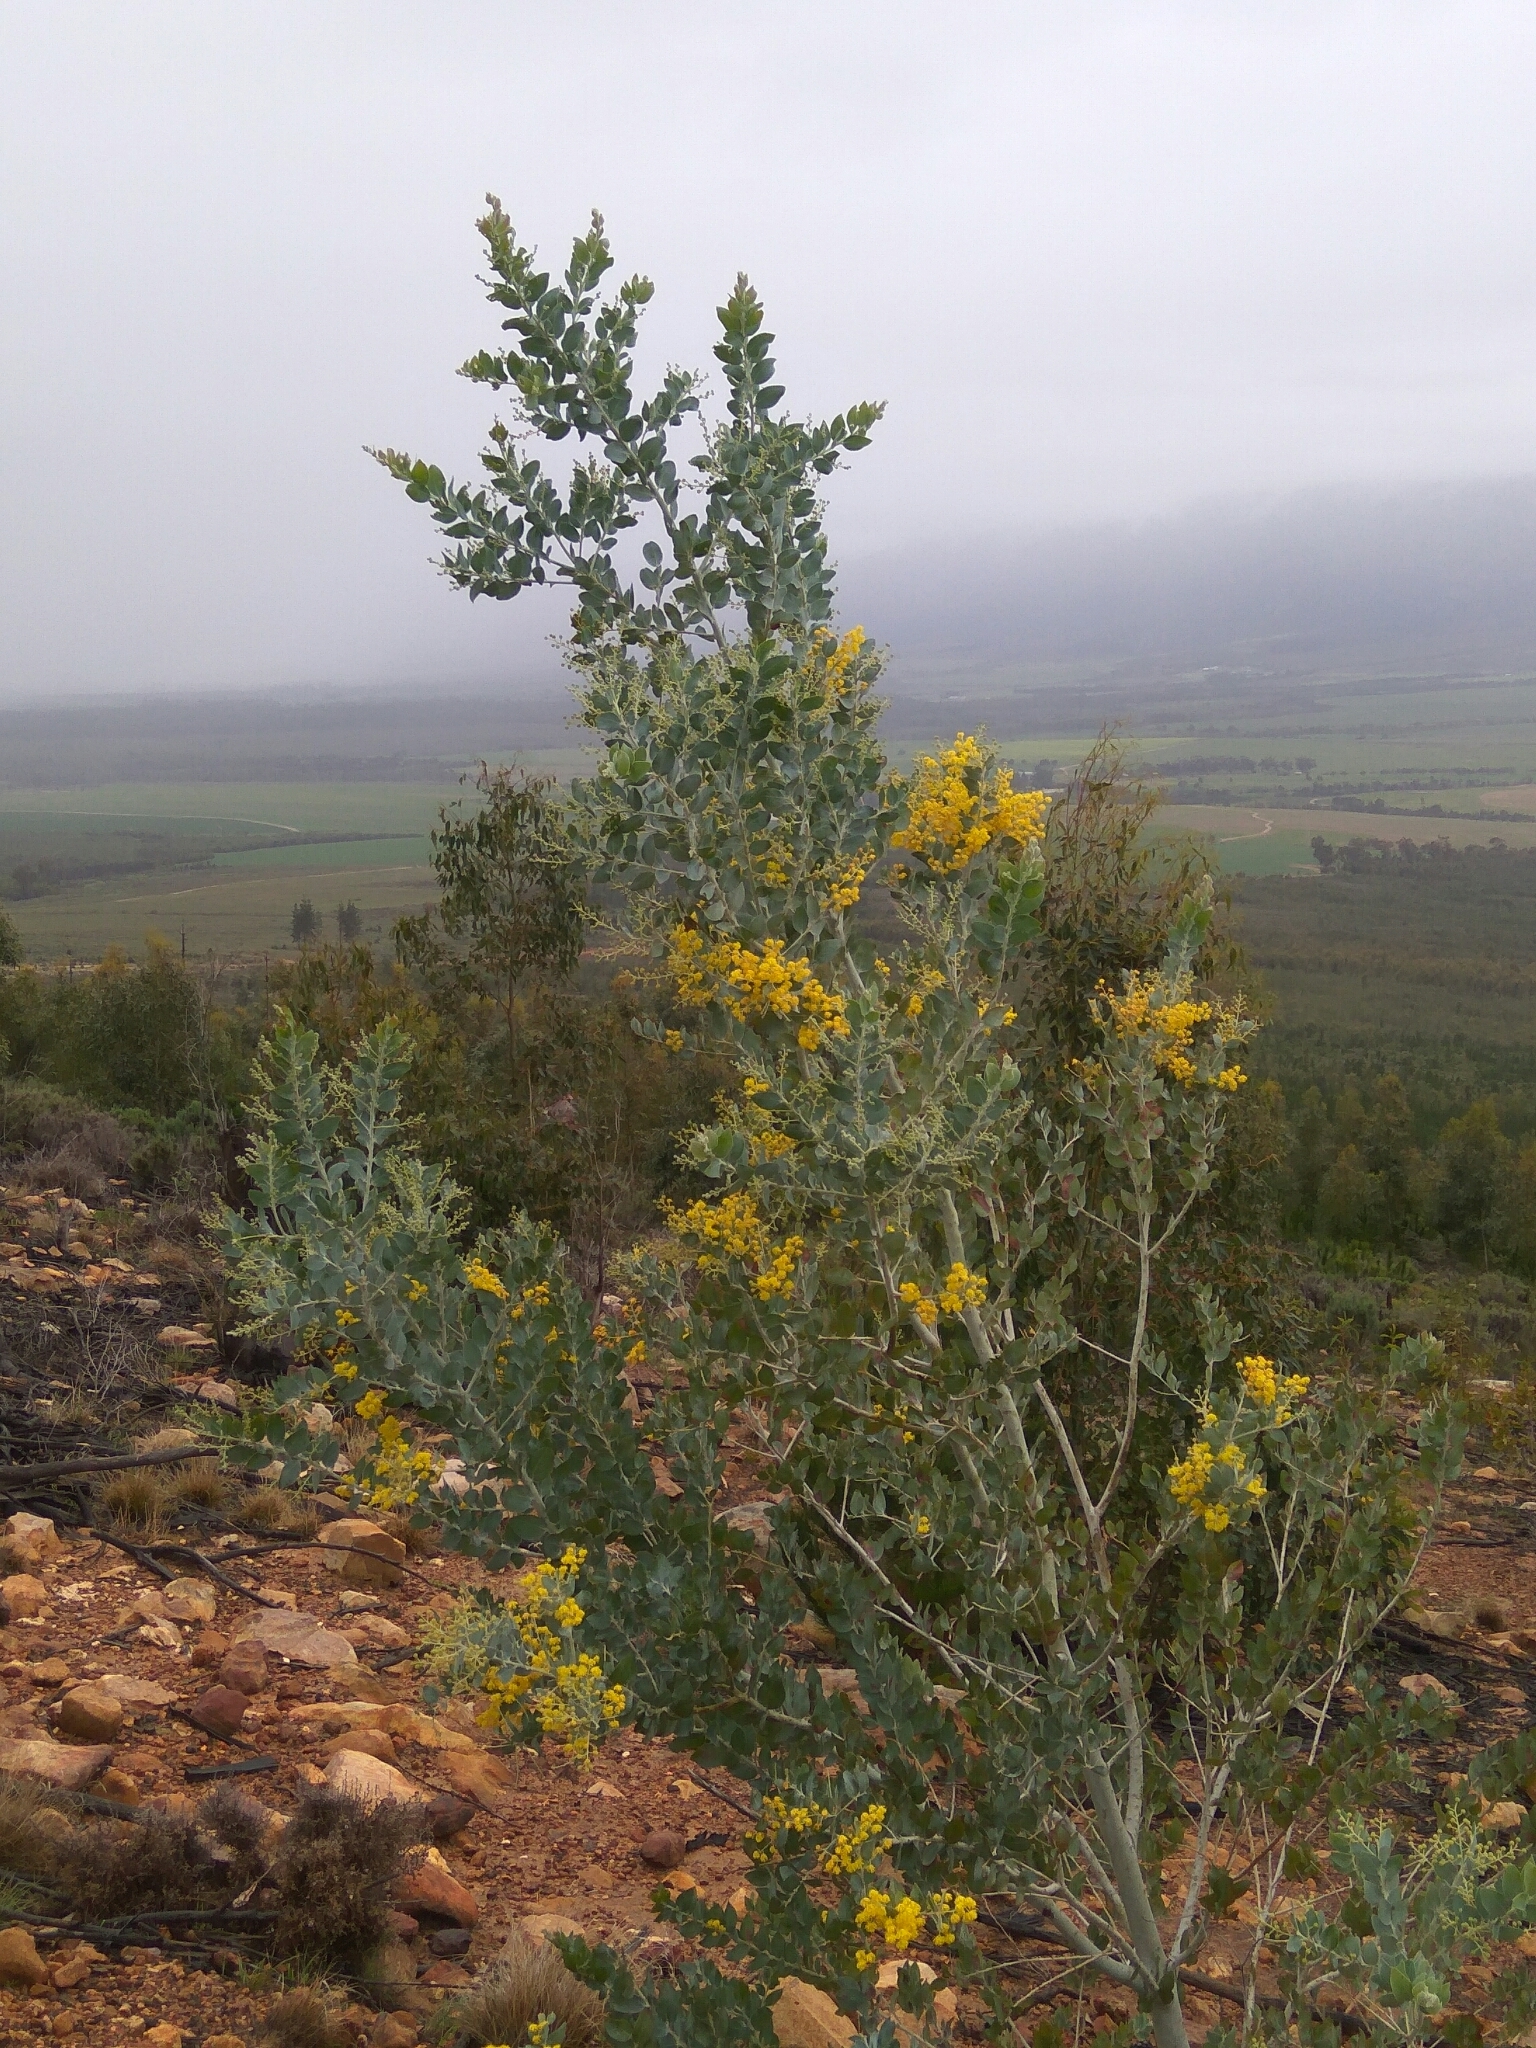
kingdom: Plantae
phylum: Tracheophyta
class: Magnoliopsida
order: Fabales
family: Fabaceae
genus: Acacia
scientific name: Acacia podalyriifolia
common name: Pearl wattle
